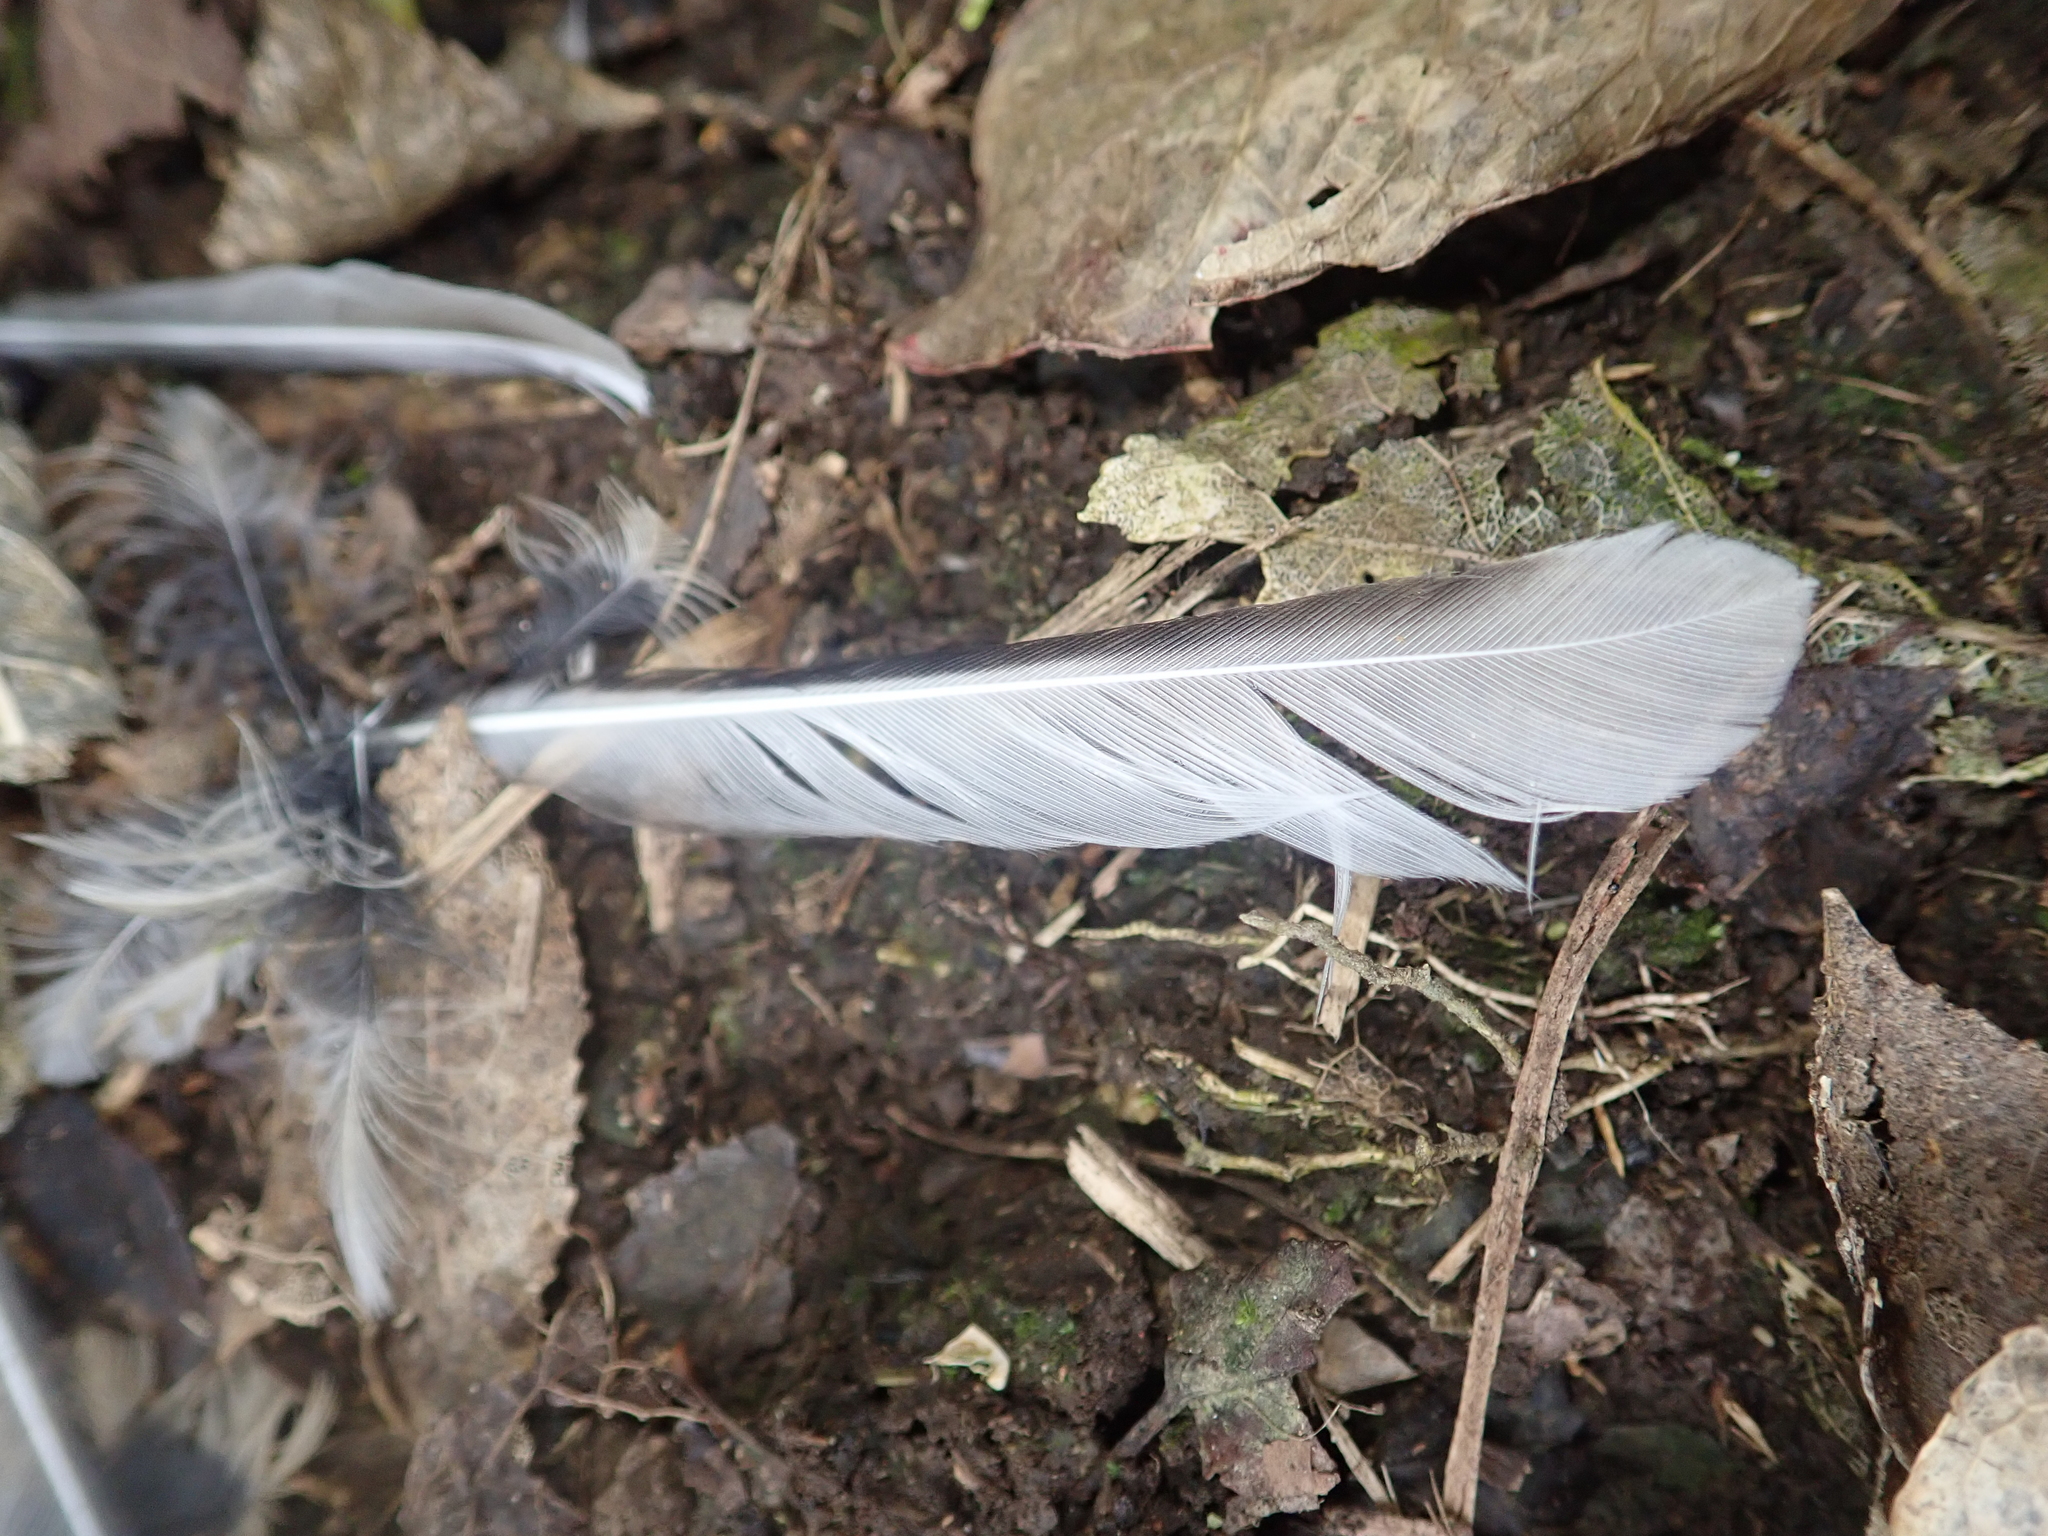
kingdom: Animalia
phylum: Chordata
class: Aves
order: Passeriformes
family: Rhipiduridae
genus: Rhipidura
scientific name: Rhipidura fuliginosa
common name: New zealand fantail
